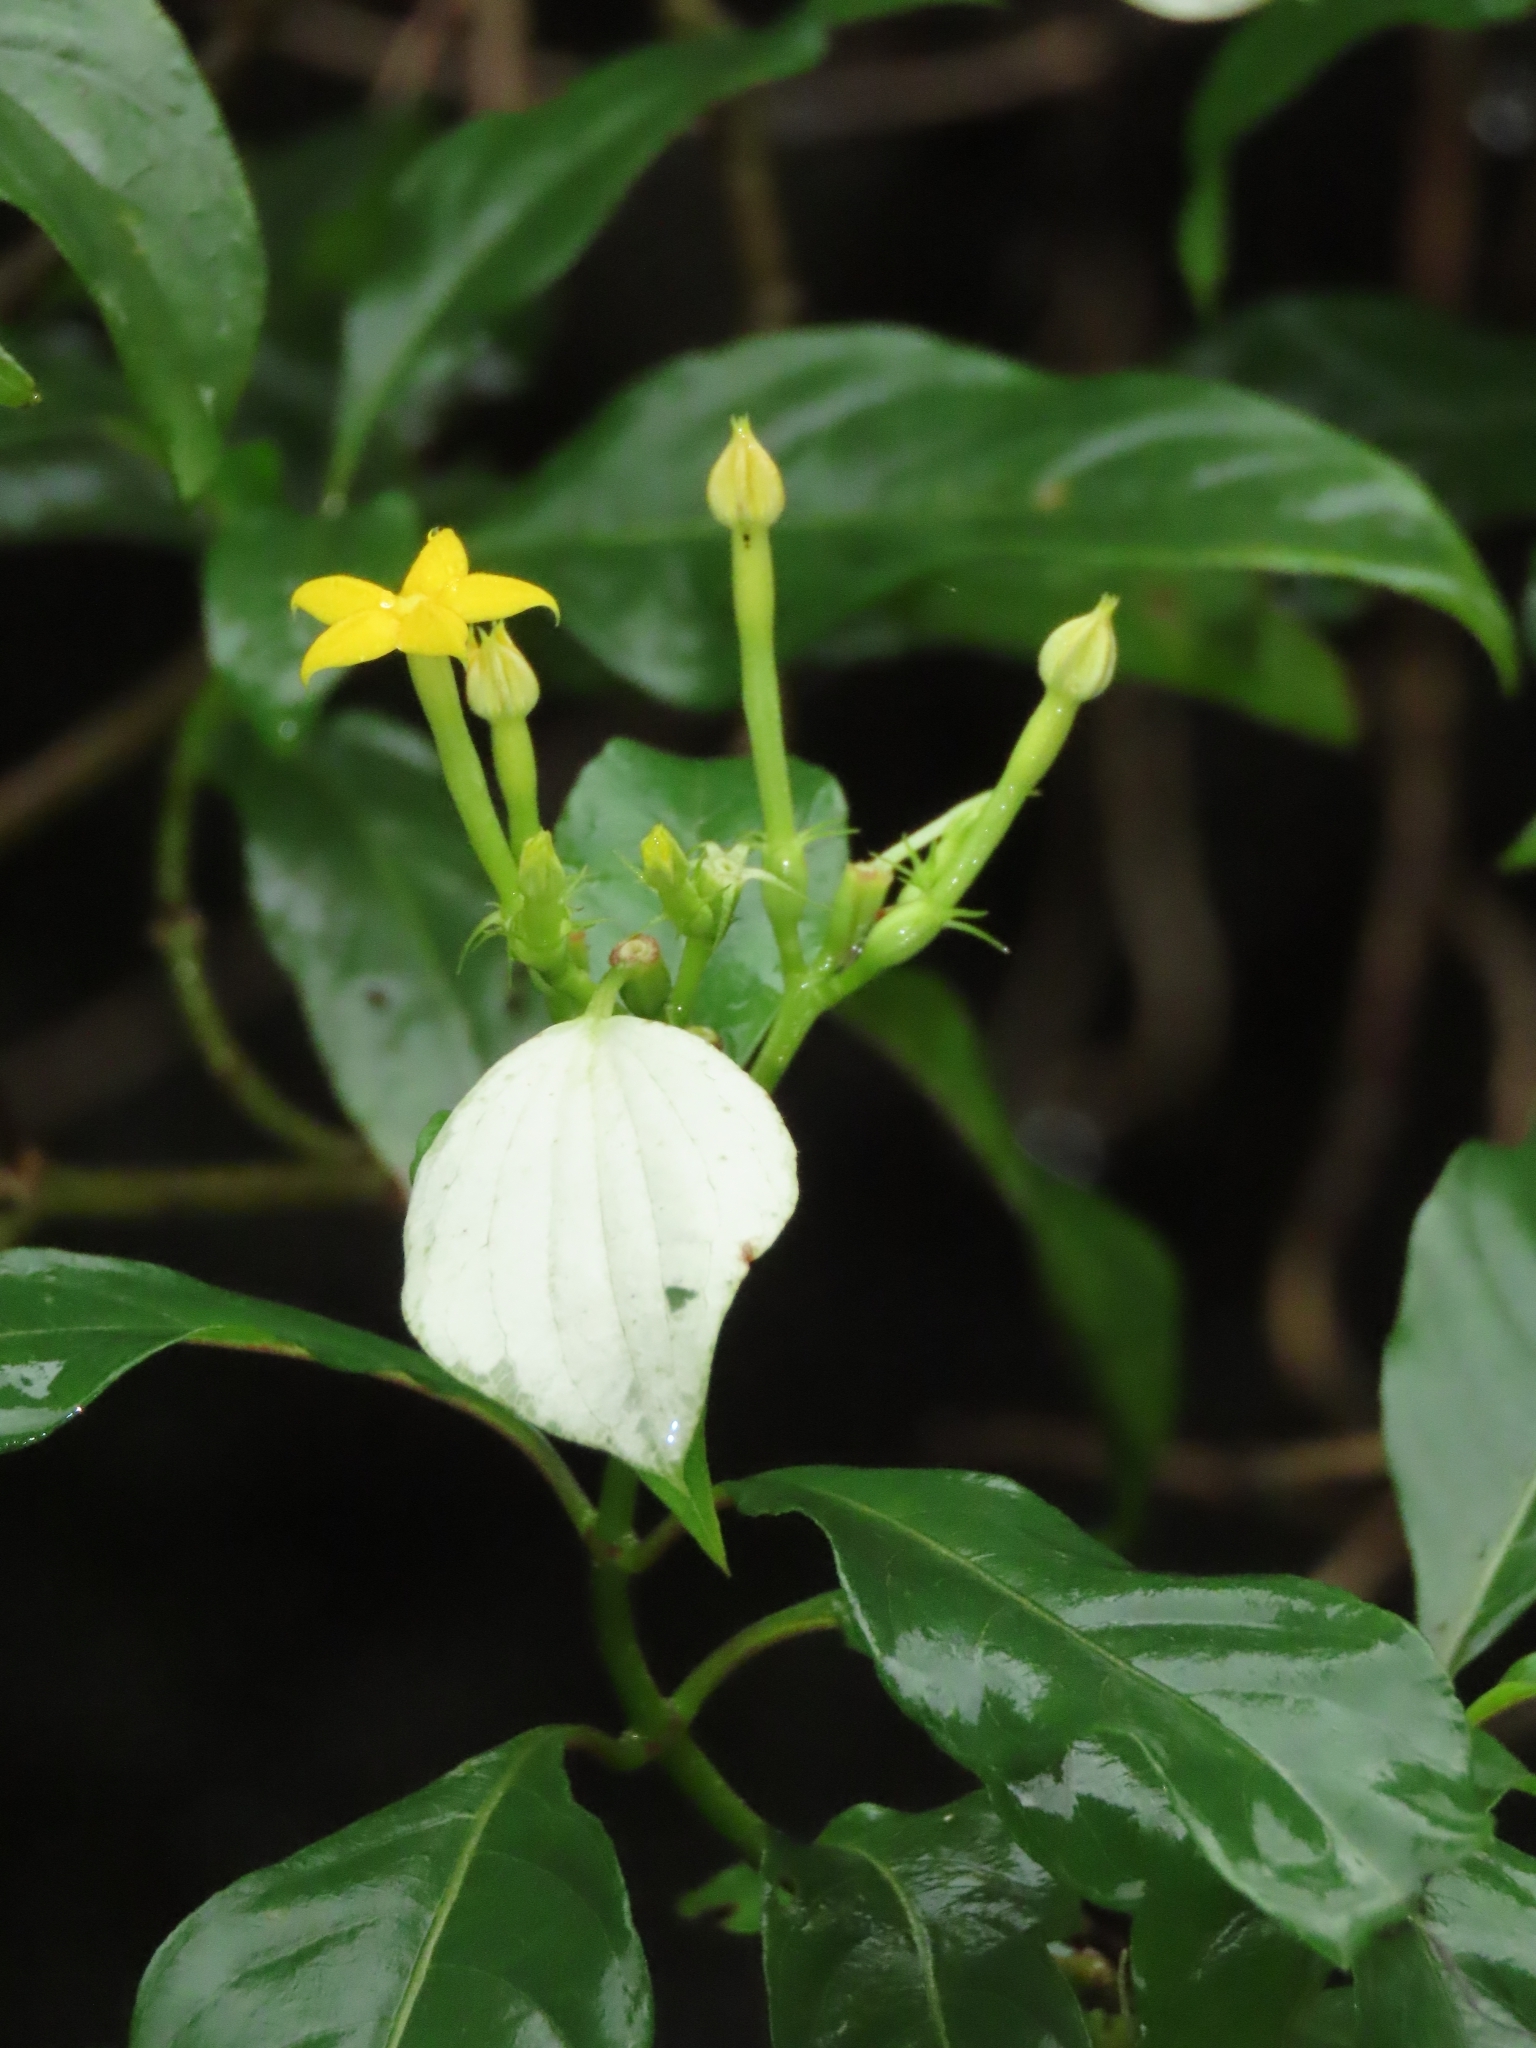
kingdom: Plantae
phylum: Tracheophyta
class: Magnoliopsida
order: Gentianales
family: Rubiaceae
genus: Mussaenda
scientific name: Mussaenda formosana
